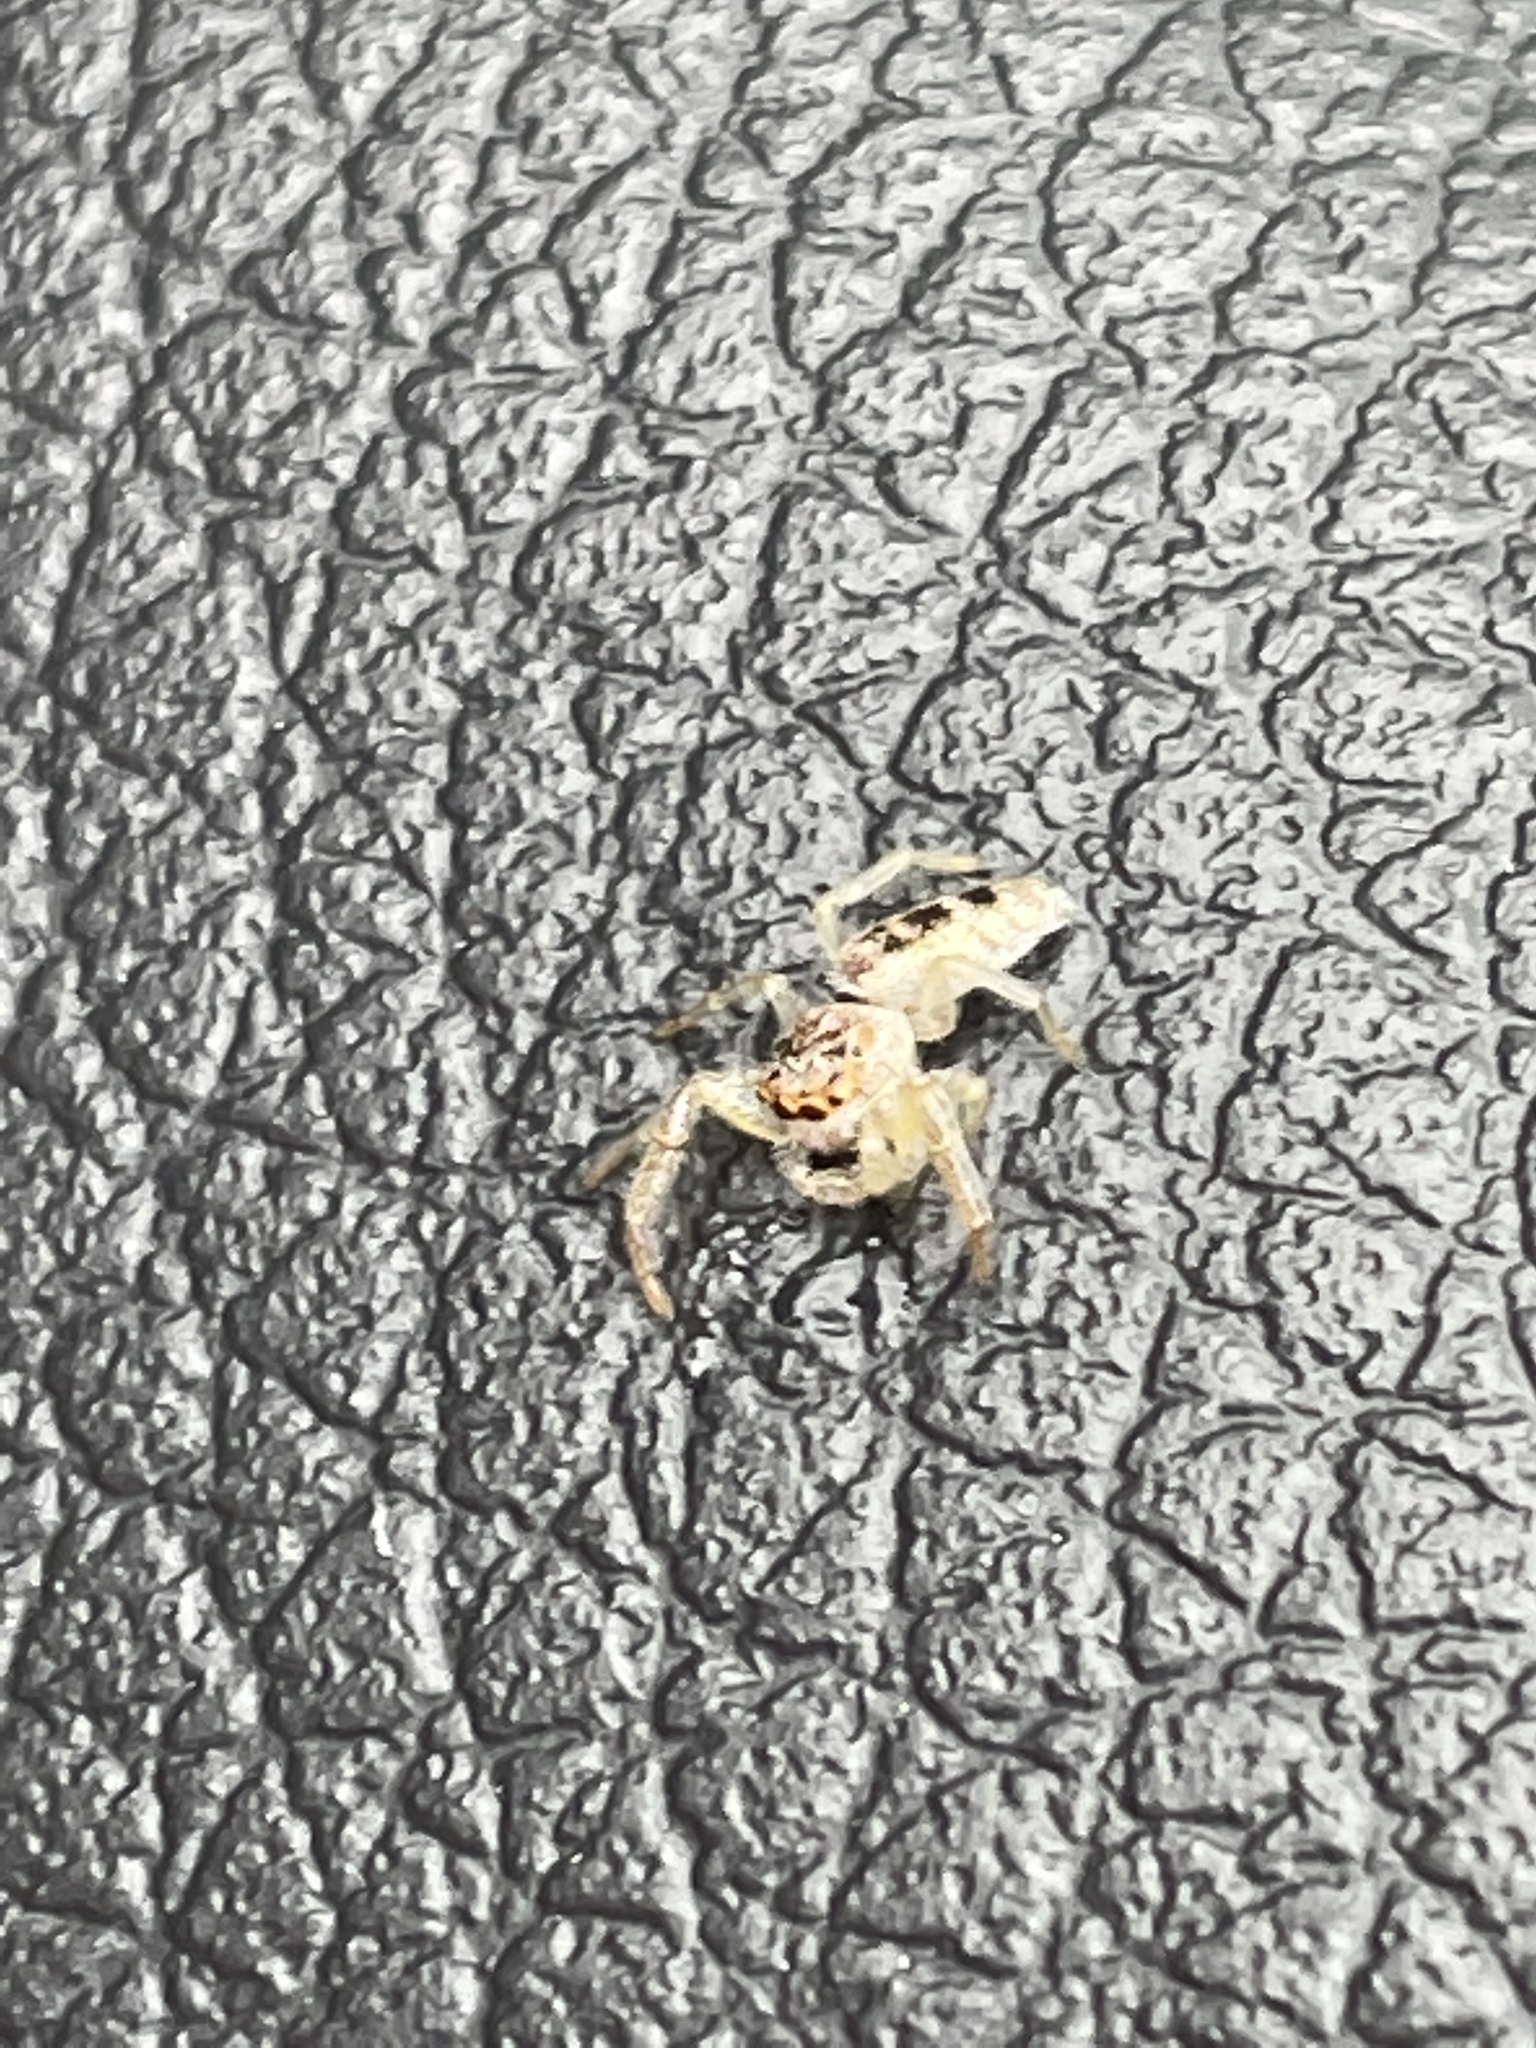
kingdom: Animalia
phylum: Arthropoda
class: Arachnida
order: Araneae
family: Salticidae
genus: Hentzia
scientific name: Hentzia mitrata
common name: White-jawed jumping spider
